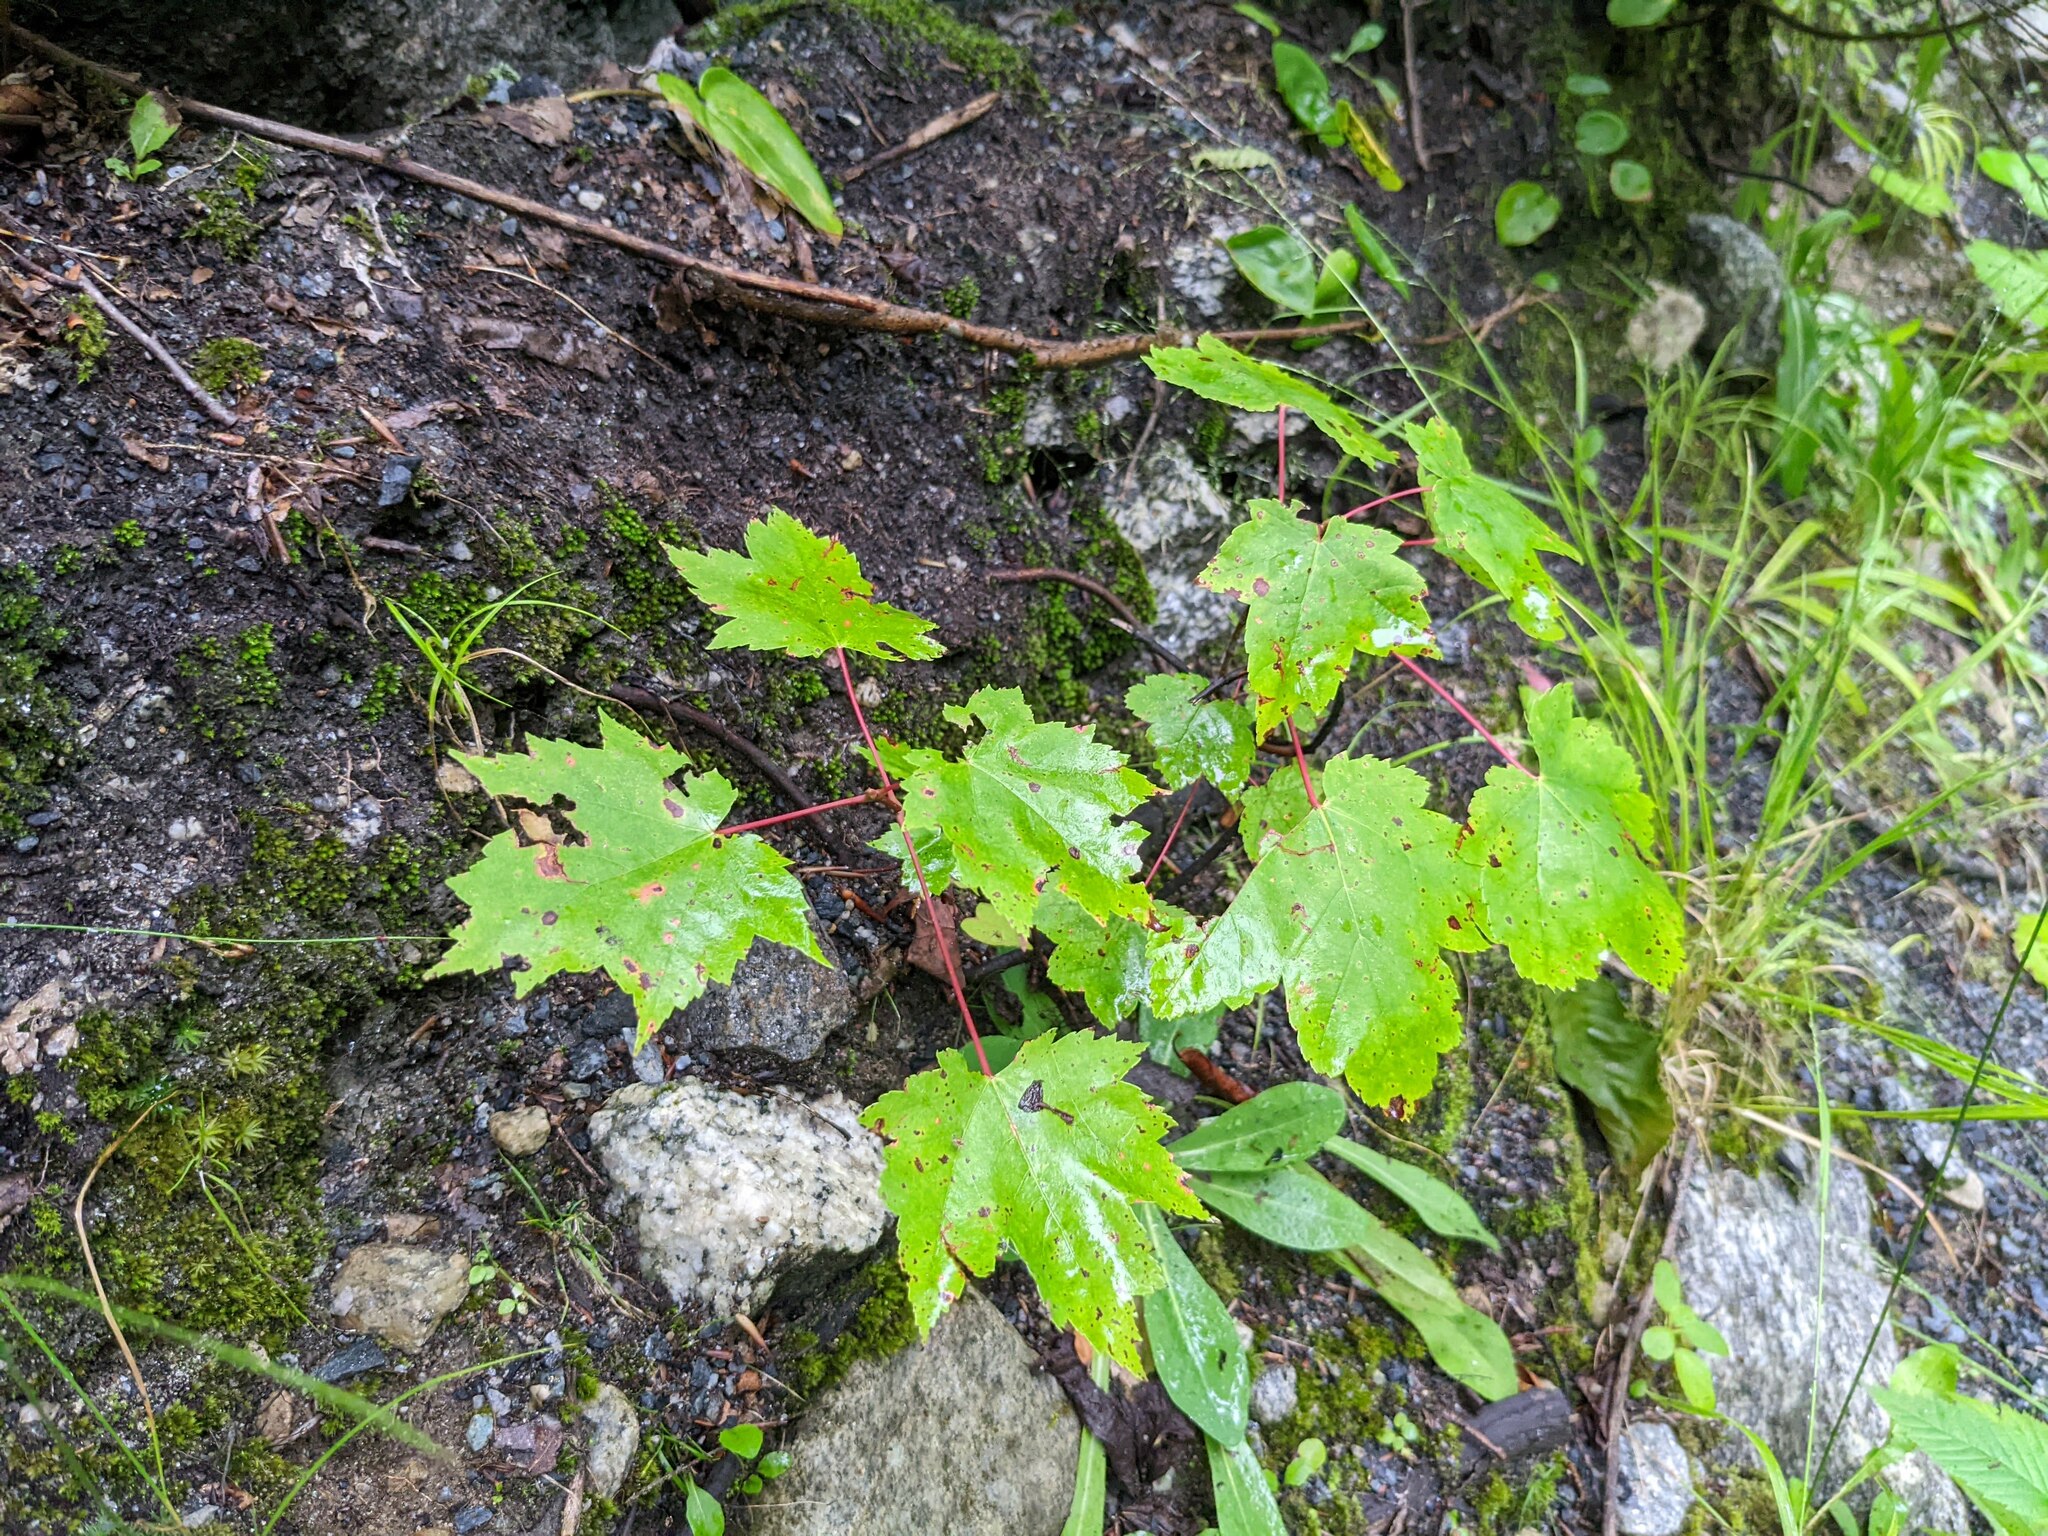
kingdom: Plantae
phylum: Tracheophyta
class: Magnoliopsida
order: Sapindales
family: Sapindaceae
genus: Acer
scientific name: Acer rubrum
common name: Red maple
